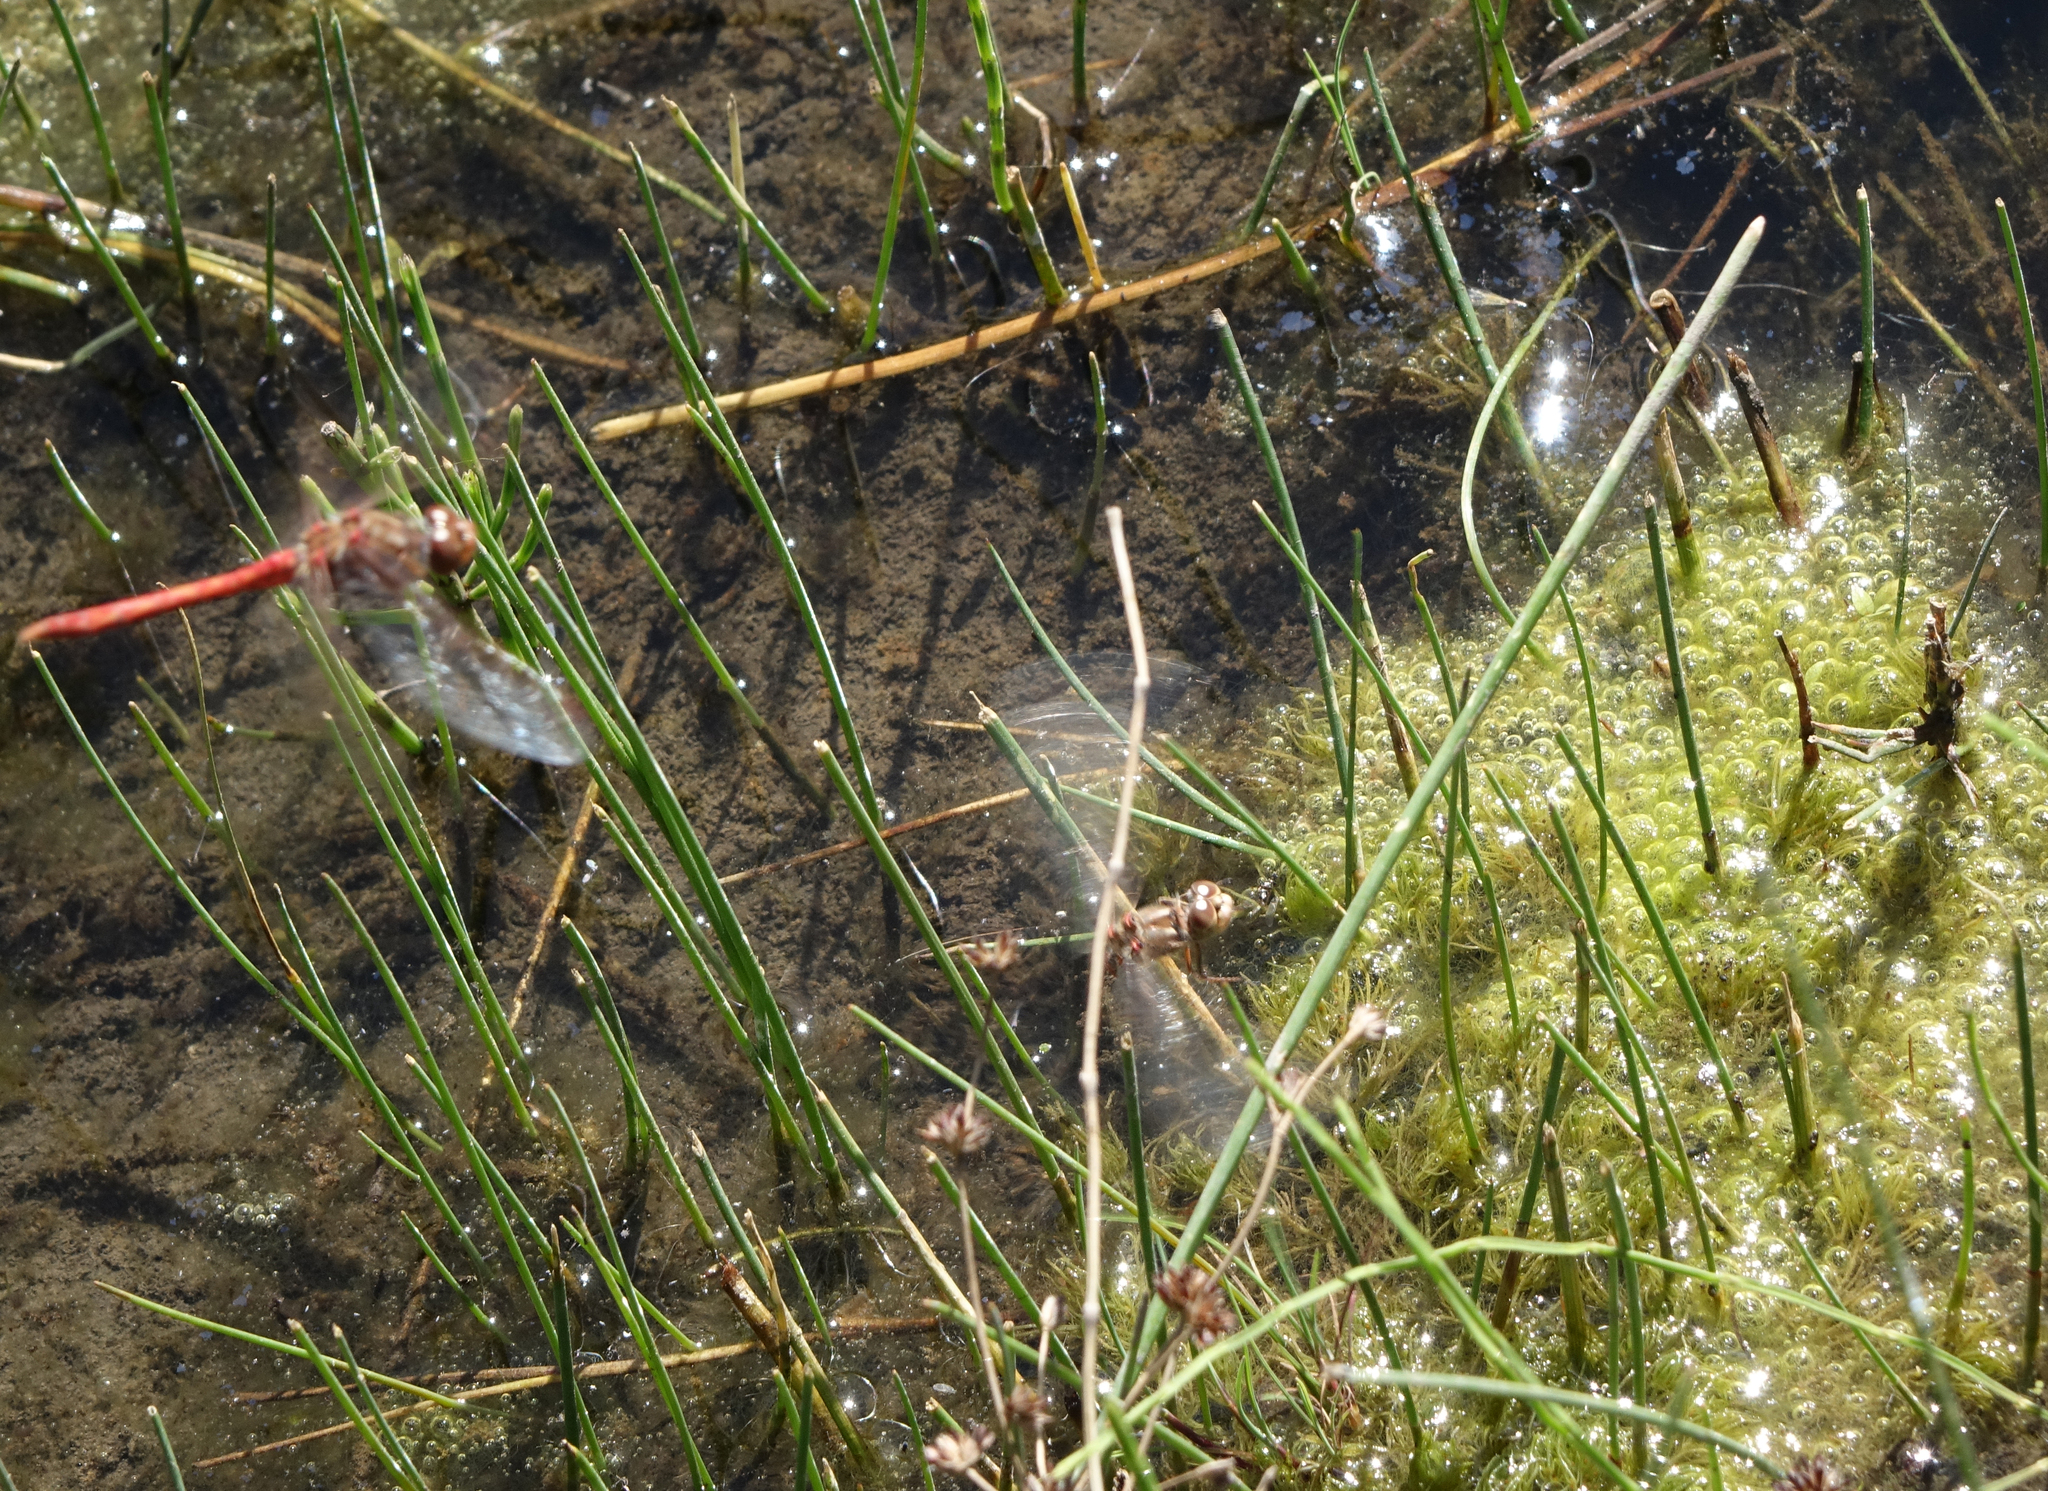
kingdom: Animalia
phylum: Arthropoda
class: Insecta
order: Odonata
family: Libellulidae
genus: Sympetrum
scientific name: Sympetrum vulgatum
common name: Vagrant darter
